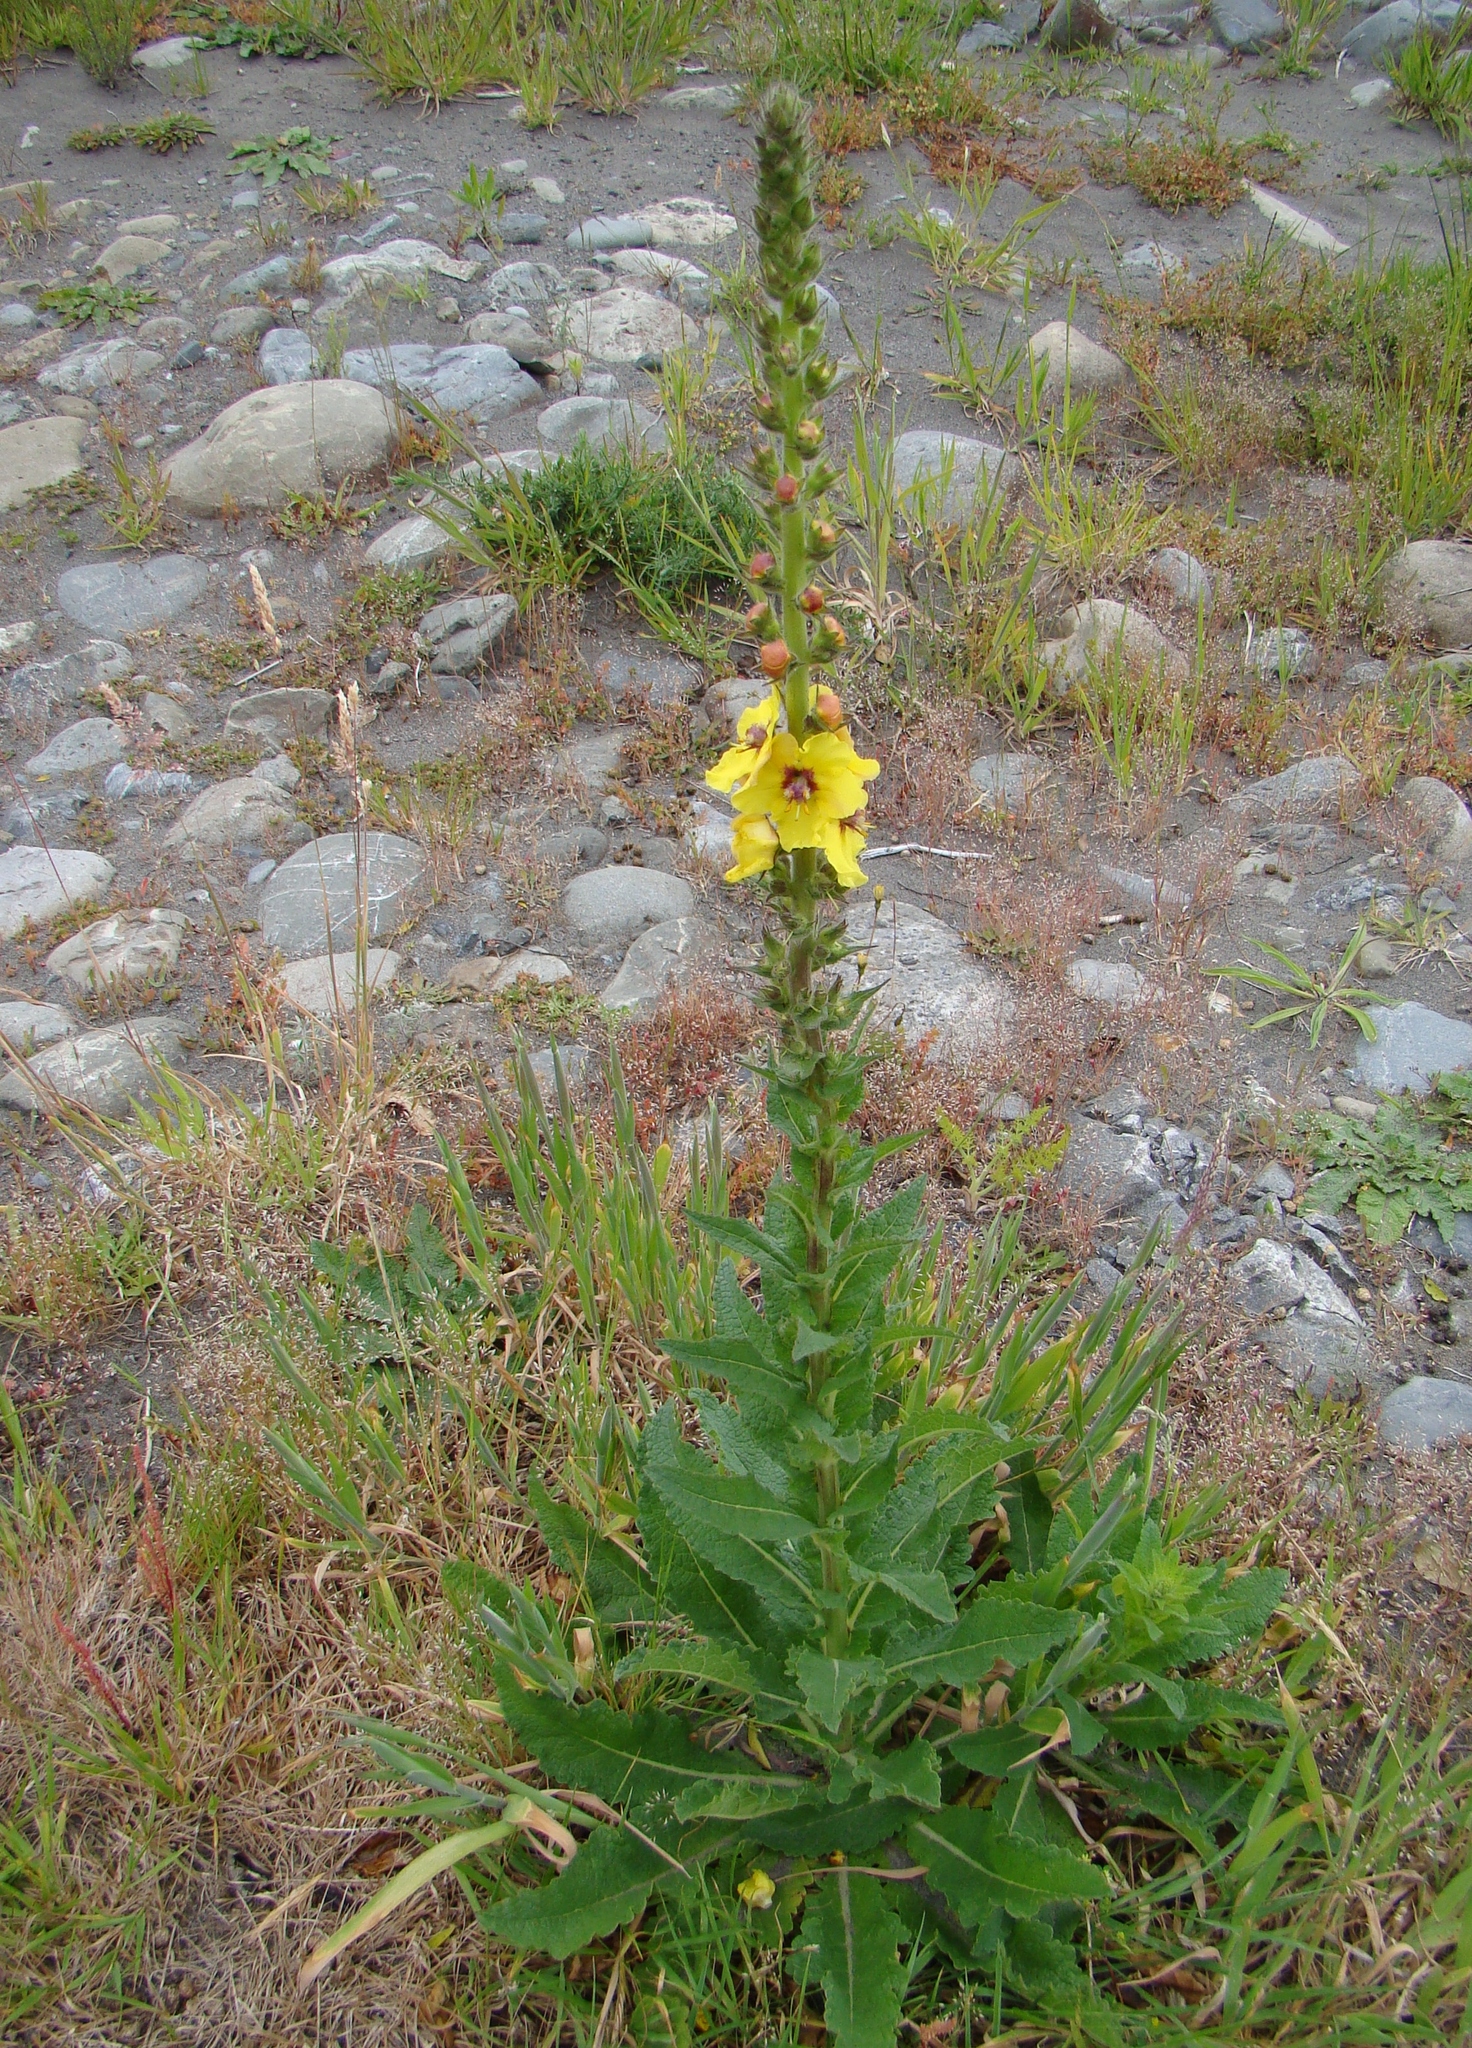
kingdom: Plantae
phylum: Tracheophyta
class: Magnoliopsida
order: Lamiales
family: Scrophulariaceae
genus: Verbascum
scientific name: Verbascum virgatum
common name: Twiggy mullein
